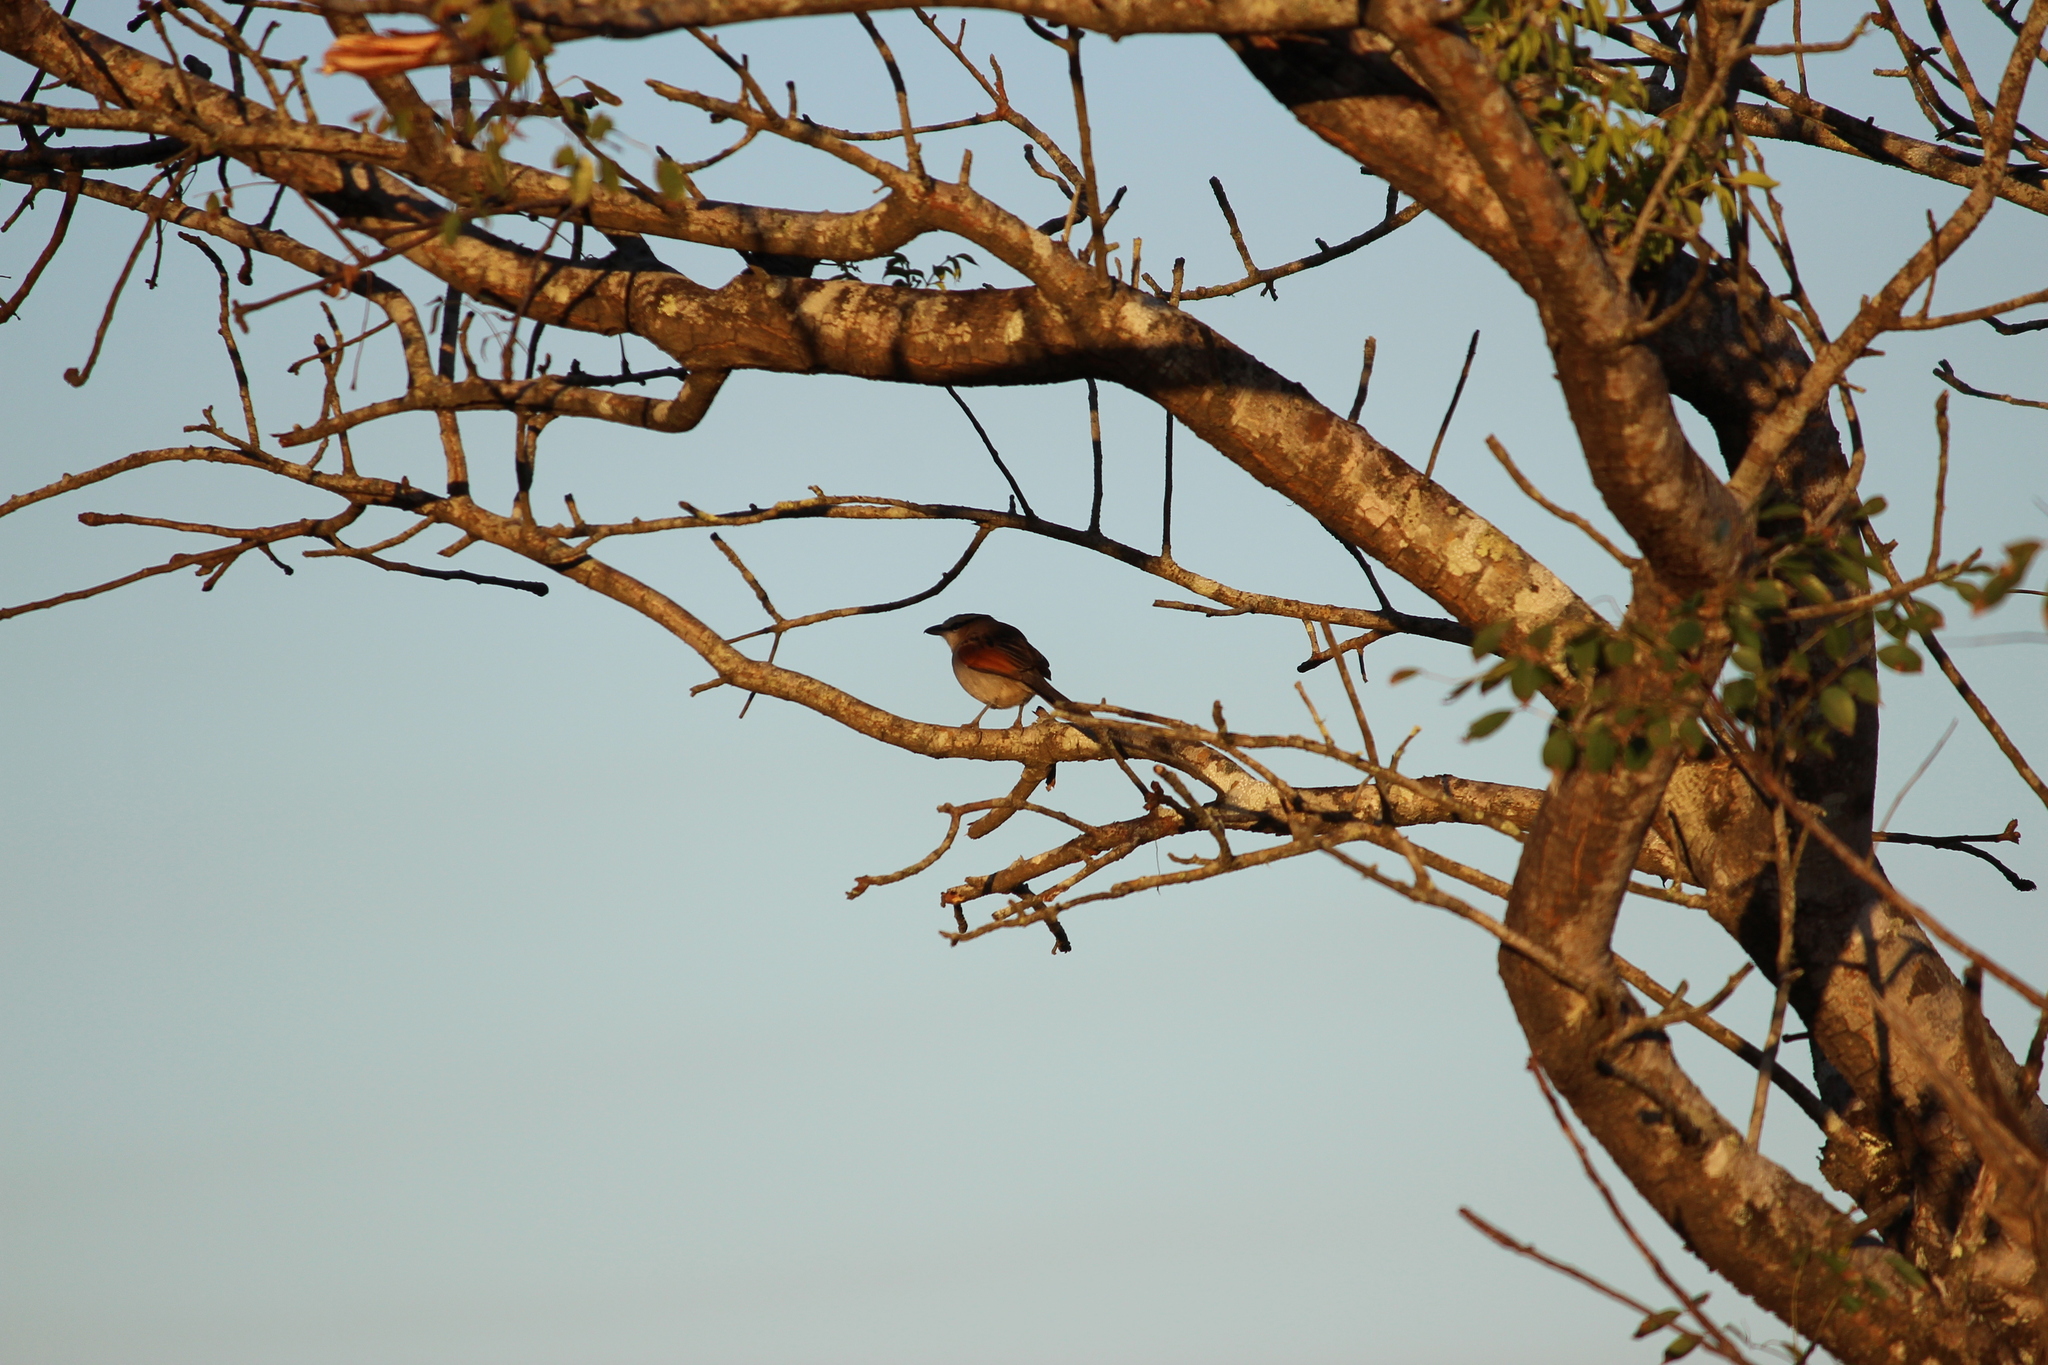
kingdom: Animalia
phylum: Chordata
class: Aves
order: Passeriformes
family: Malaconotidae
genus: Tchagra
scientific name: Tchagra australis
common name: Brown-crowned tchagra
